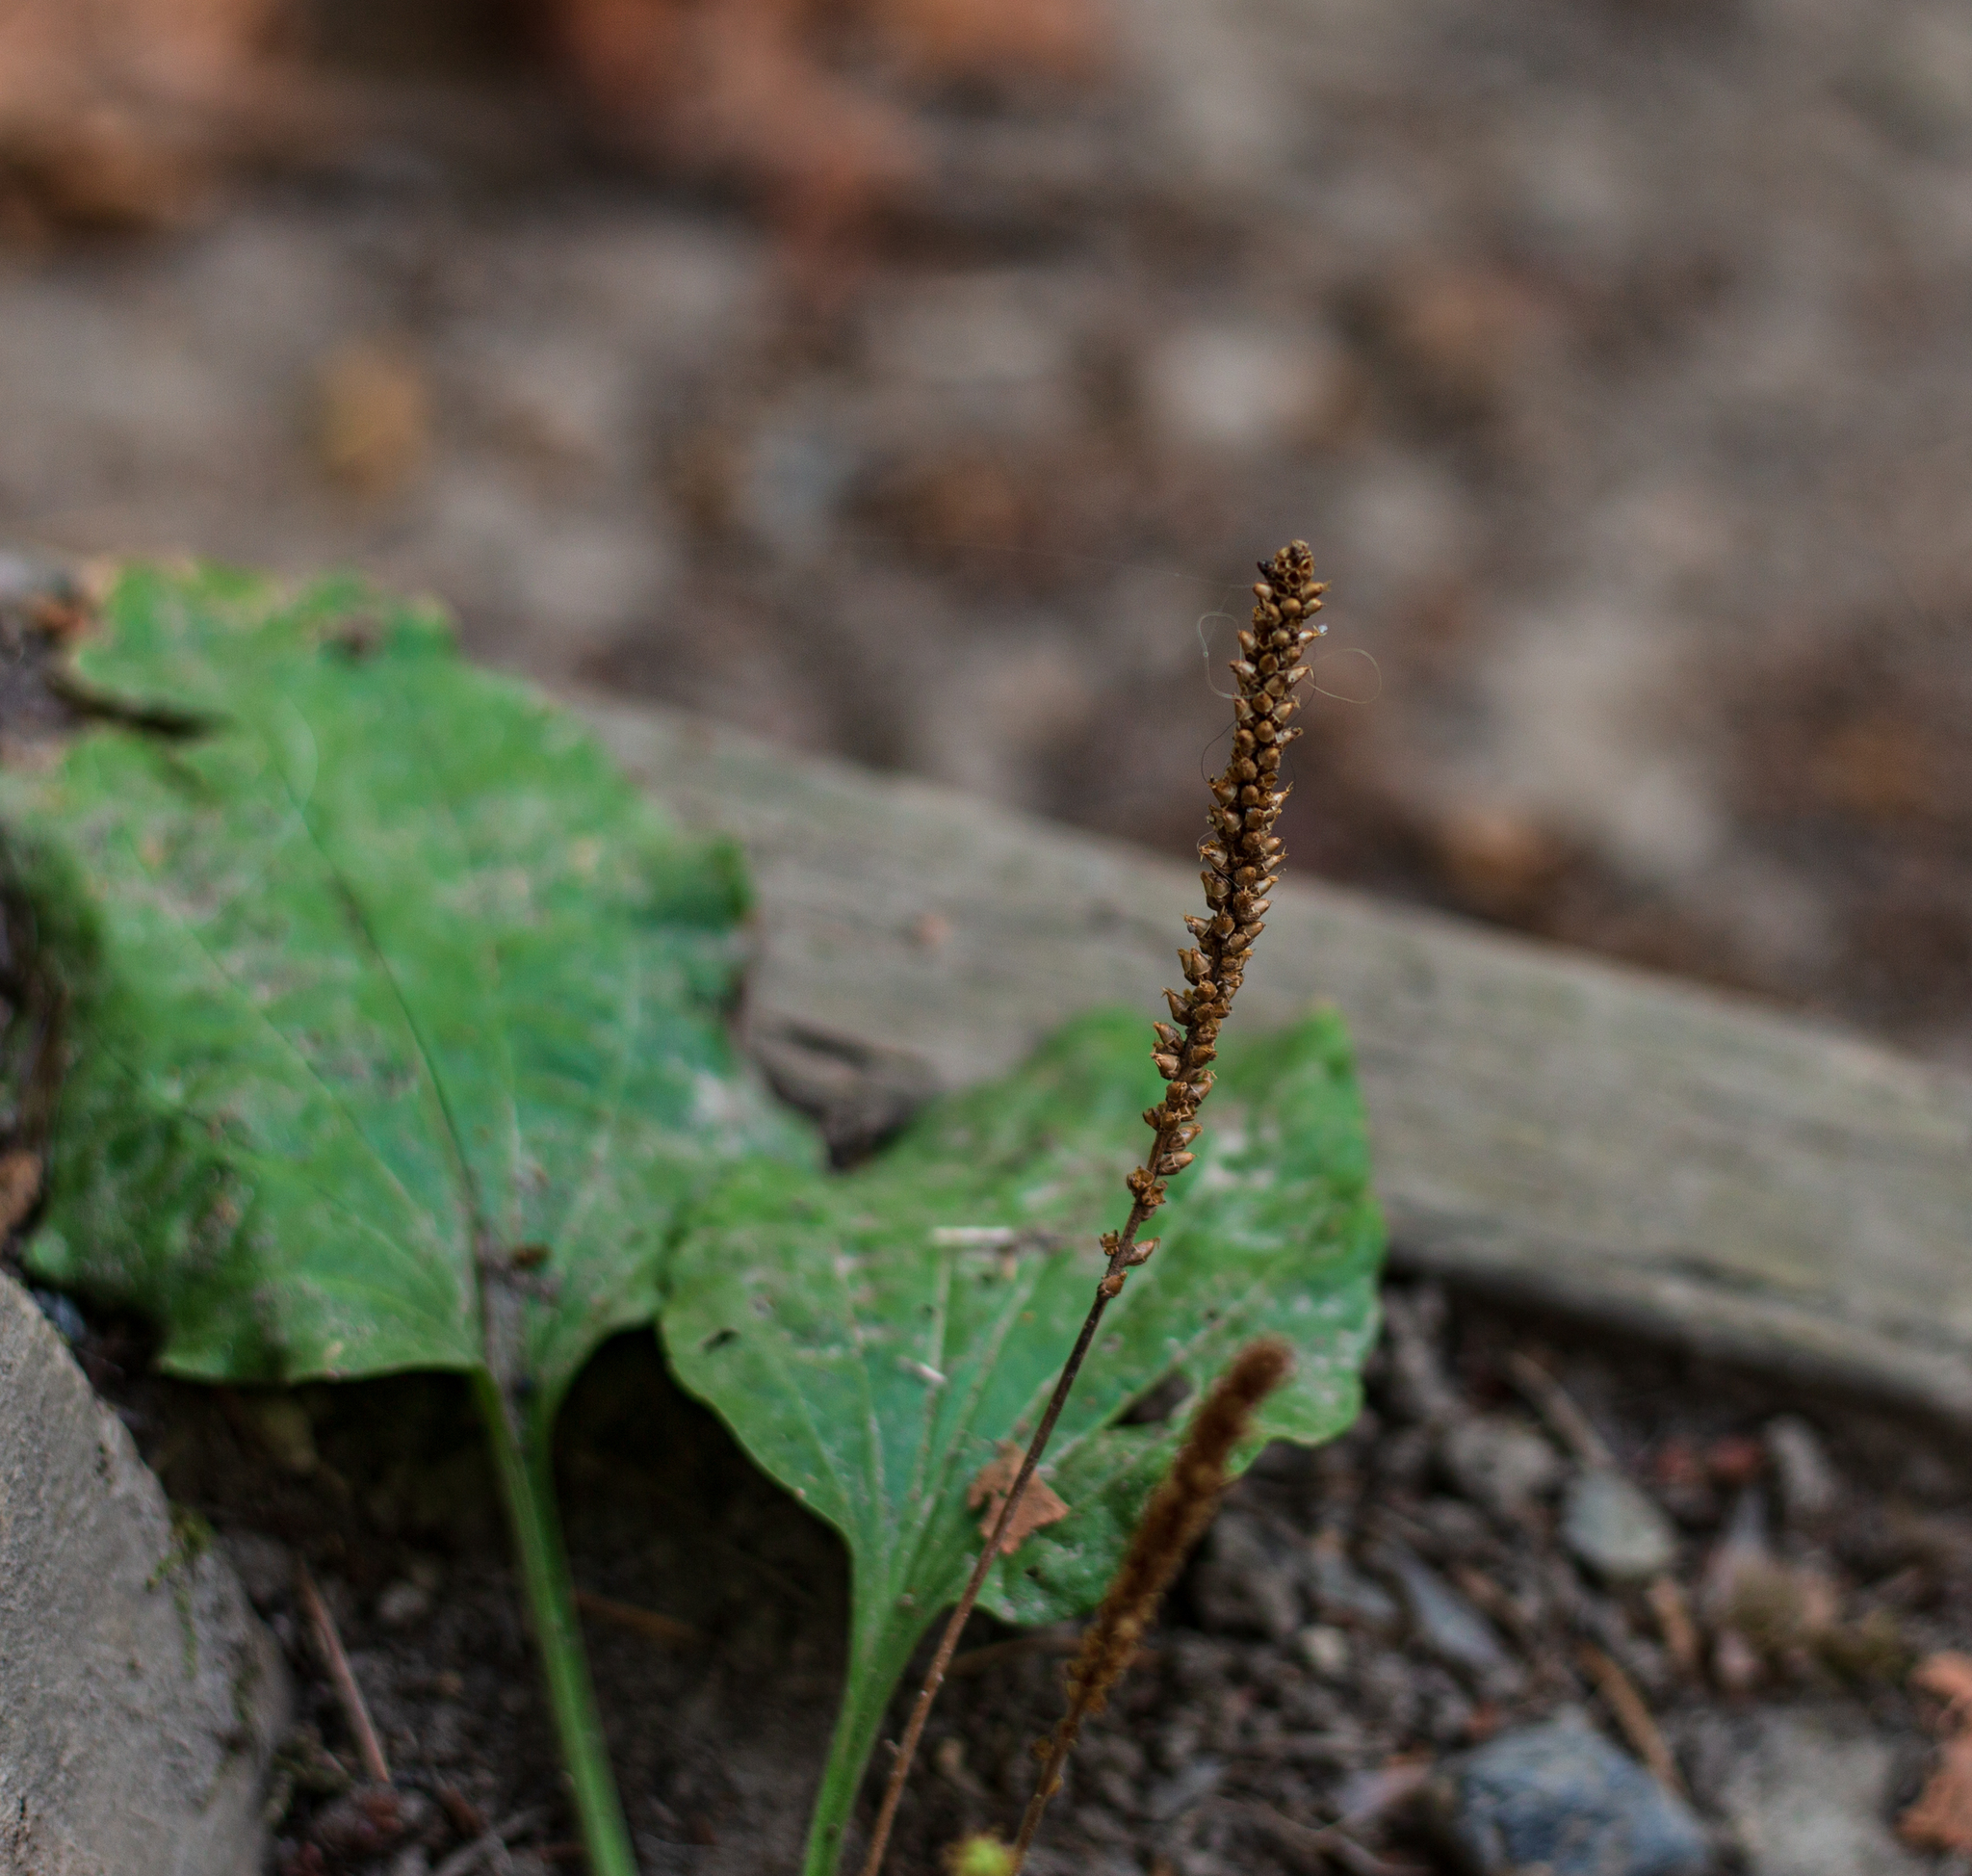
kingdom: Plantae
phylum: Tracheophyta
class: Magnoliopsida
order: Lamiales
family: Plantaginaceae
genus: Plantago
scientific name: Plantago major
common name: Common plantain
